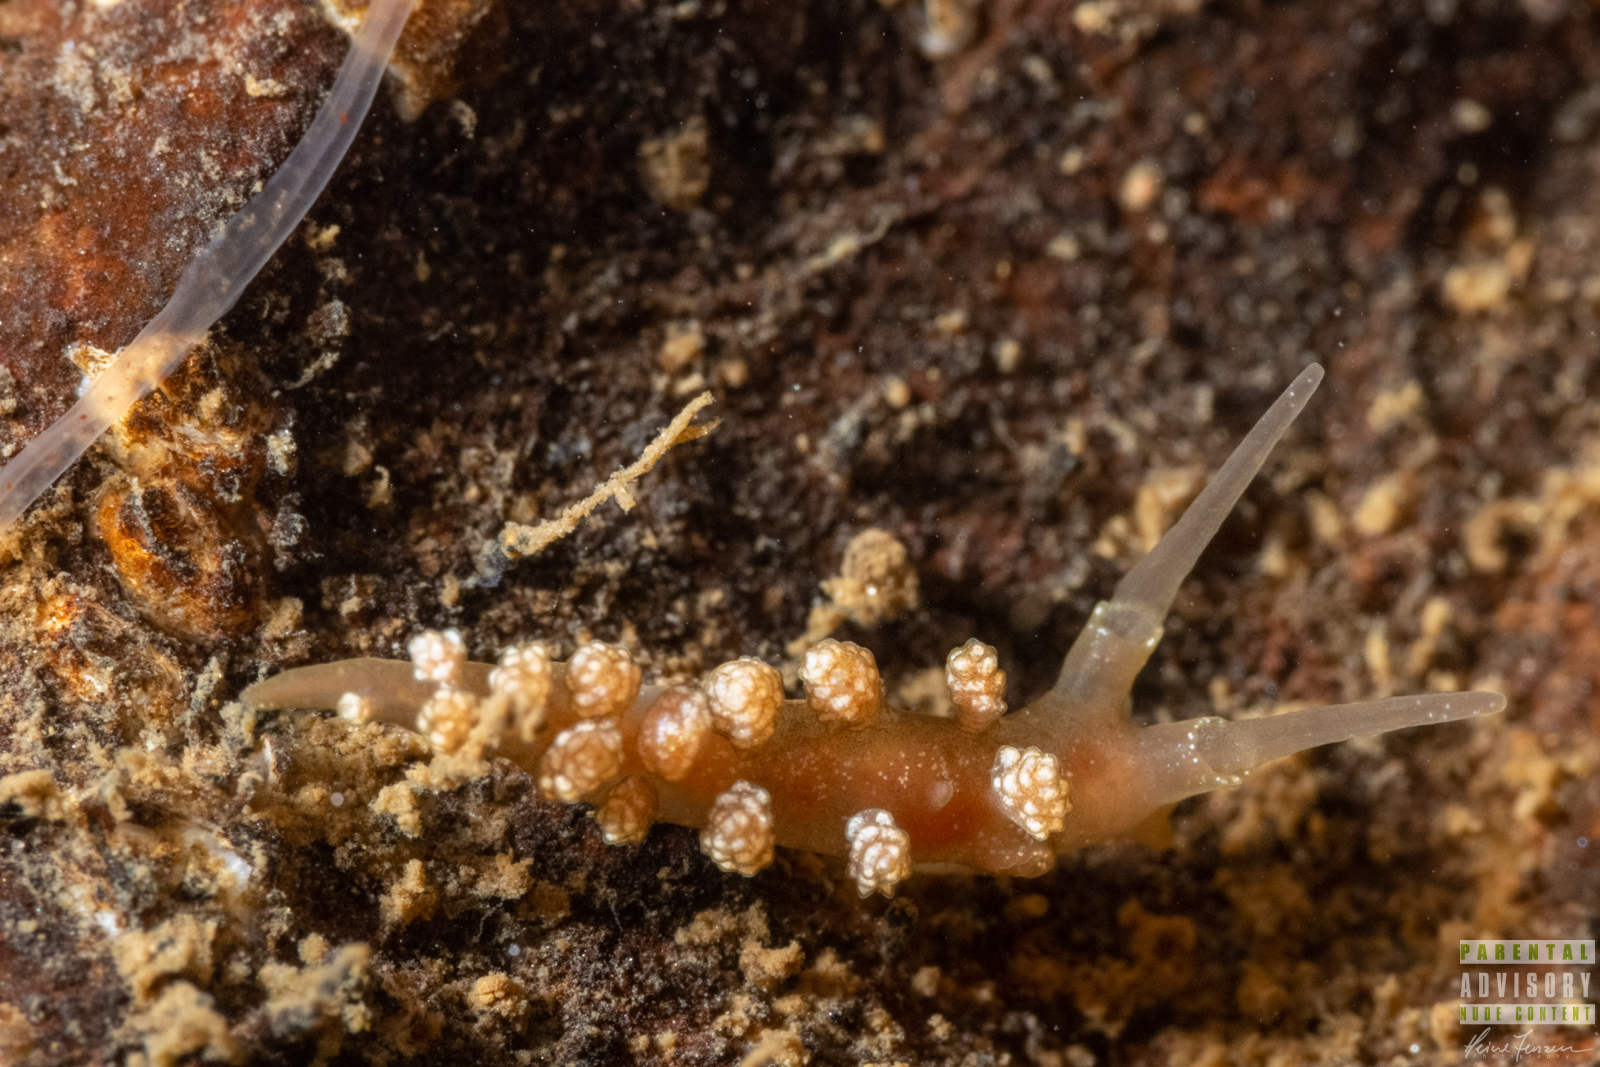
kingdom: Animalia
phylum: Mollusca
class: Gastropoda
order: Nudibranchia
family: Dotidae
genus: Doto
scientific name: Doto fragilis
